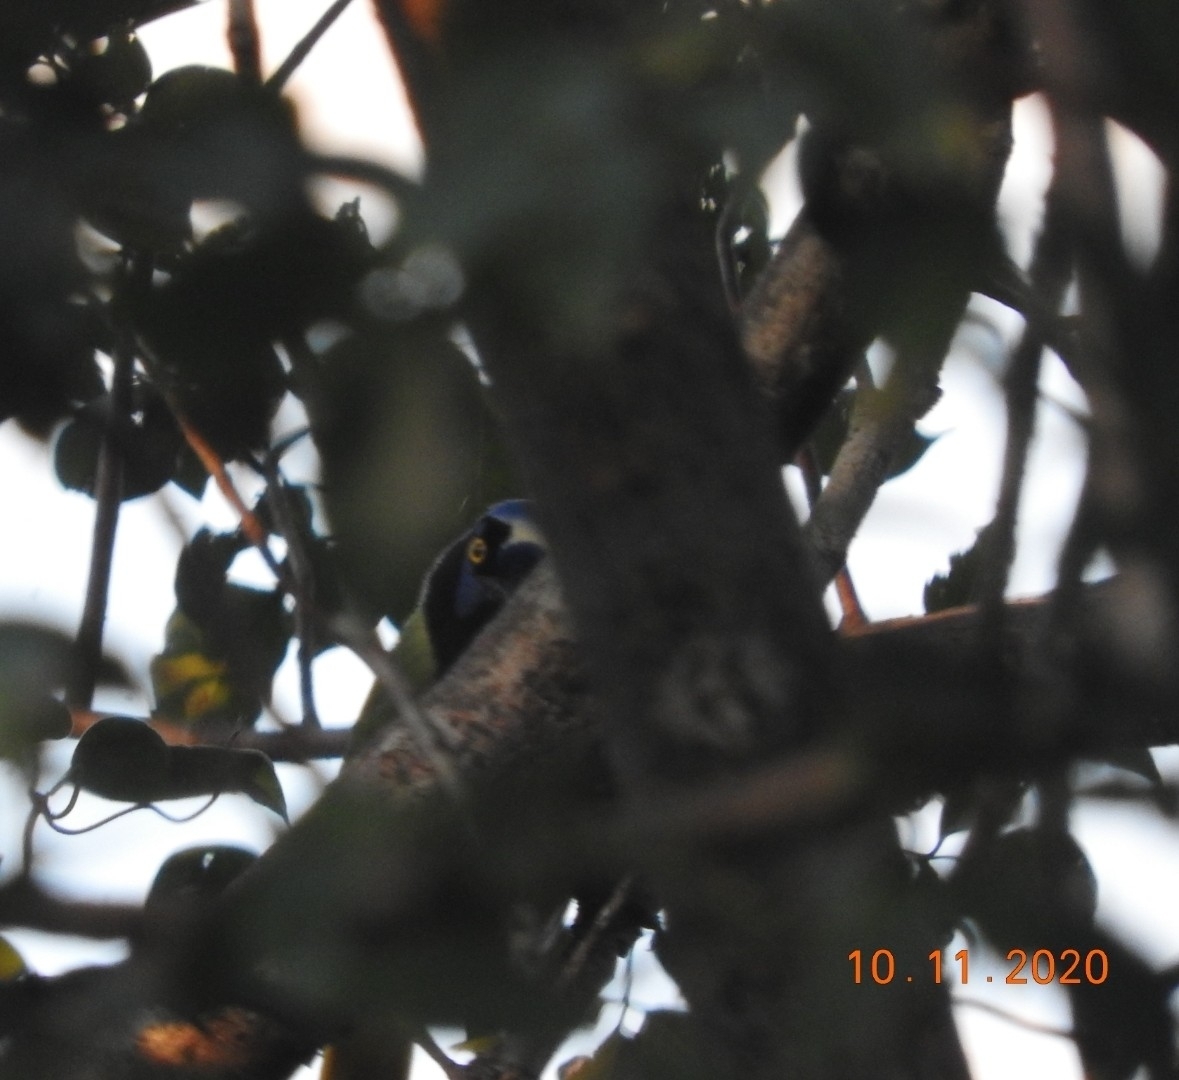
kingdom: Animalia
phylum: Chordata
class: Aves
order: Passeriformes
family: Corvidae
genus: Cyanocorax
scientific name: Cyanocorax yncas
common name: Green jay
